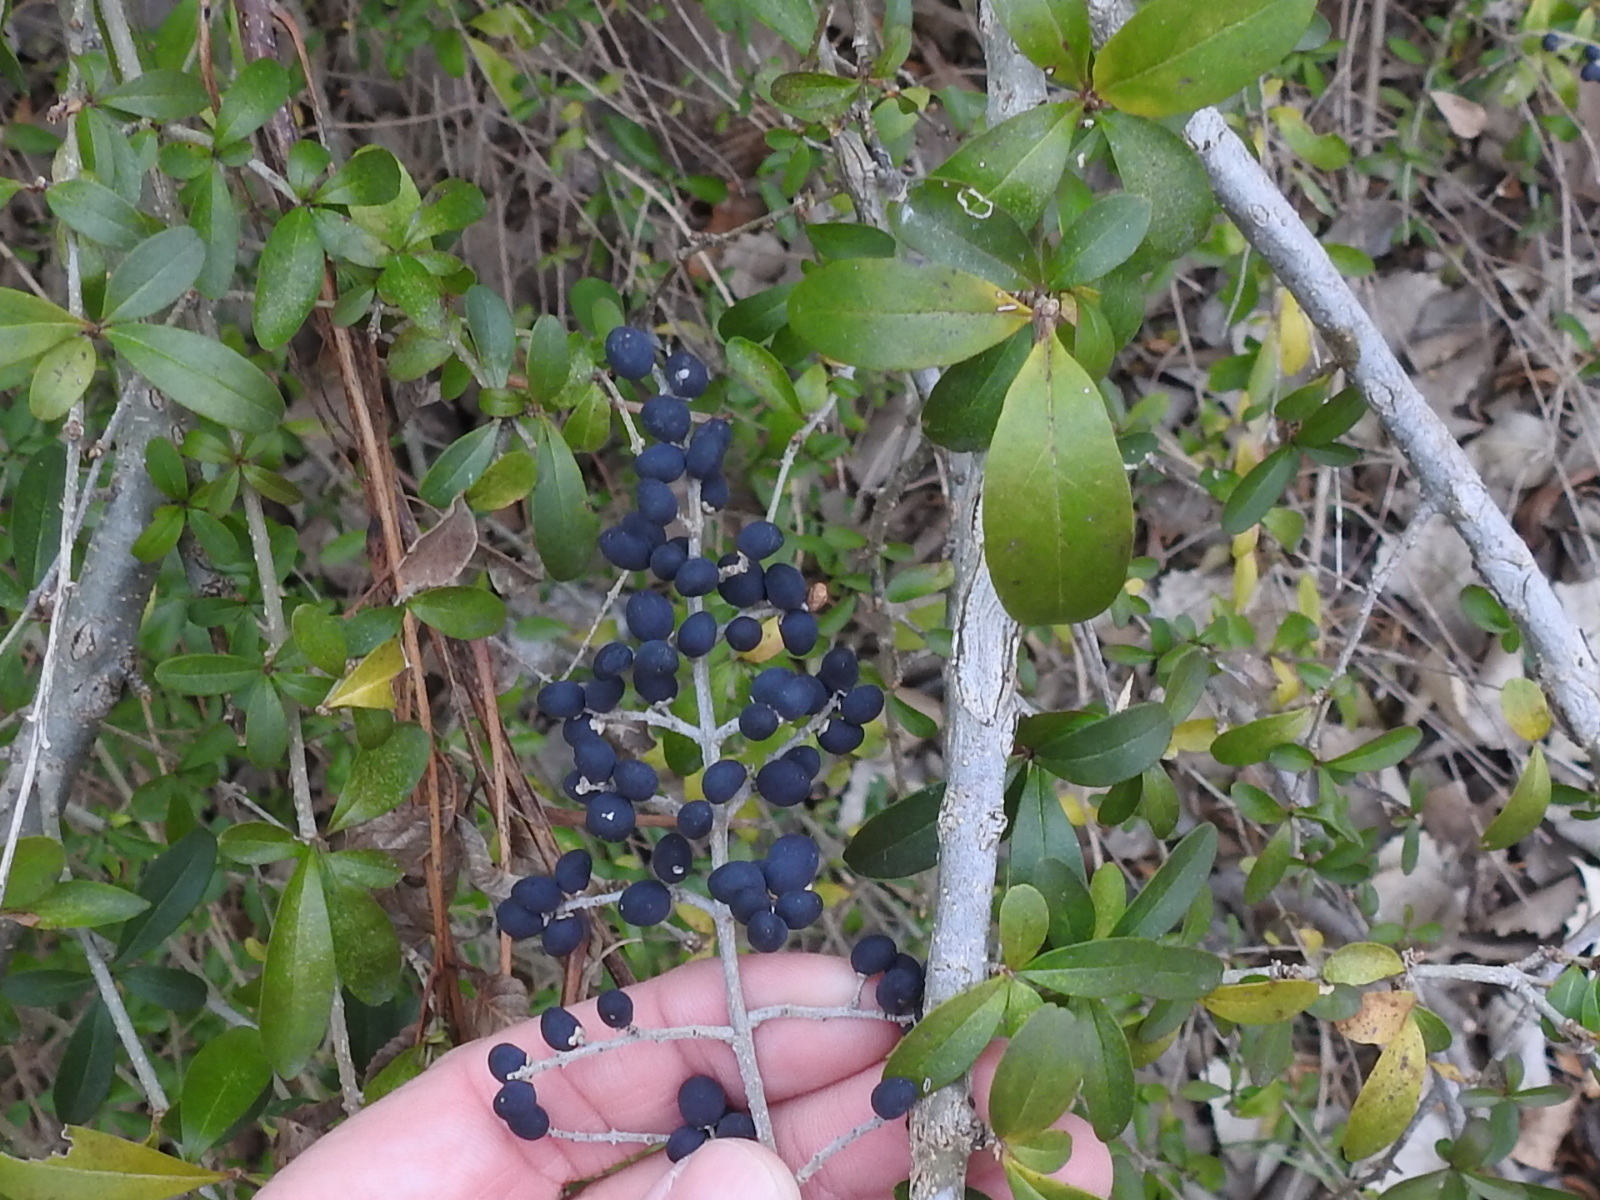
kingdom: Plantae
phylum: Tracheophyta
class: Magnoliopsida
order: Lamiales
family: Oleaceae
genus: Ligustrum
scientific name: Ligustrum quihoui
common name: Waxyleaf privet
